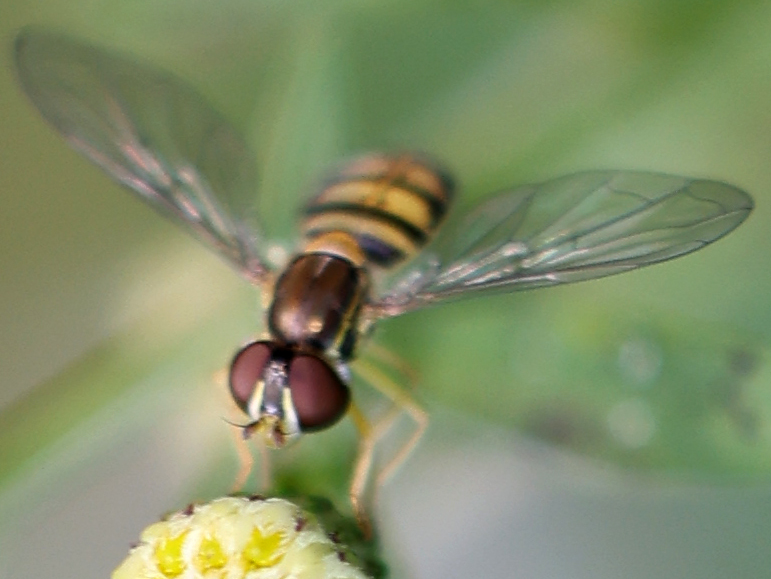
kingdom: Animalia
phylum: Arthropoda
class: Insecta
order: Diptera
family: Syrphidae
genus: Toxomerus
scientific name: Toxomerus marginatus
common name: Syrphid fly
